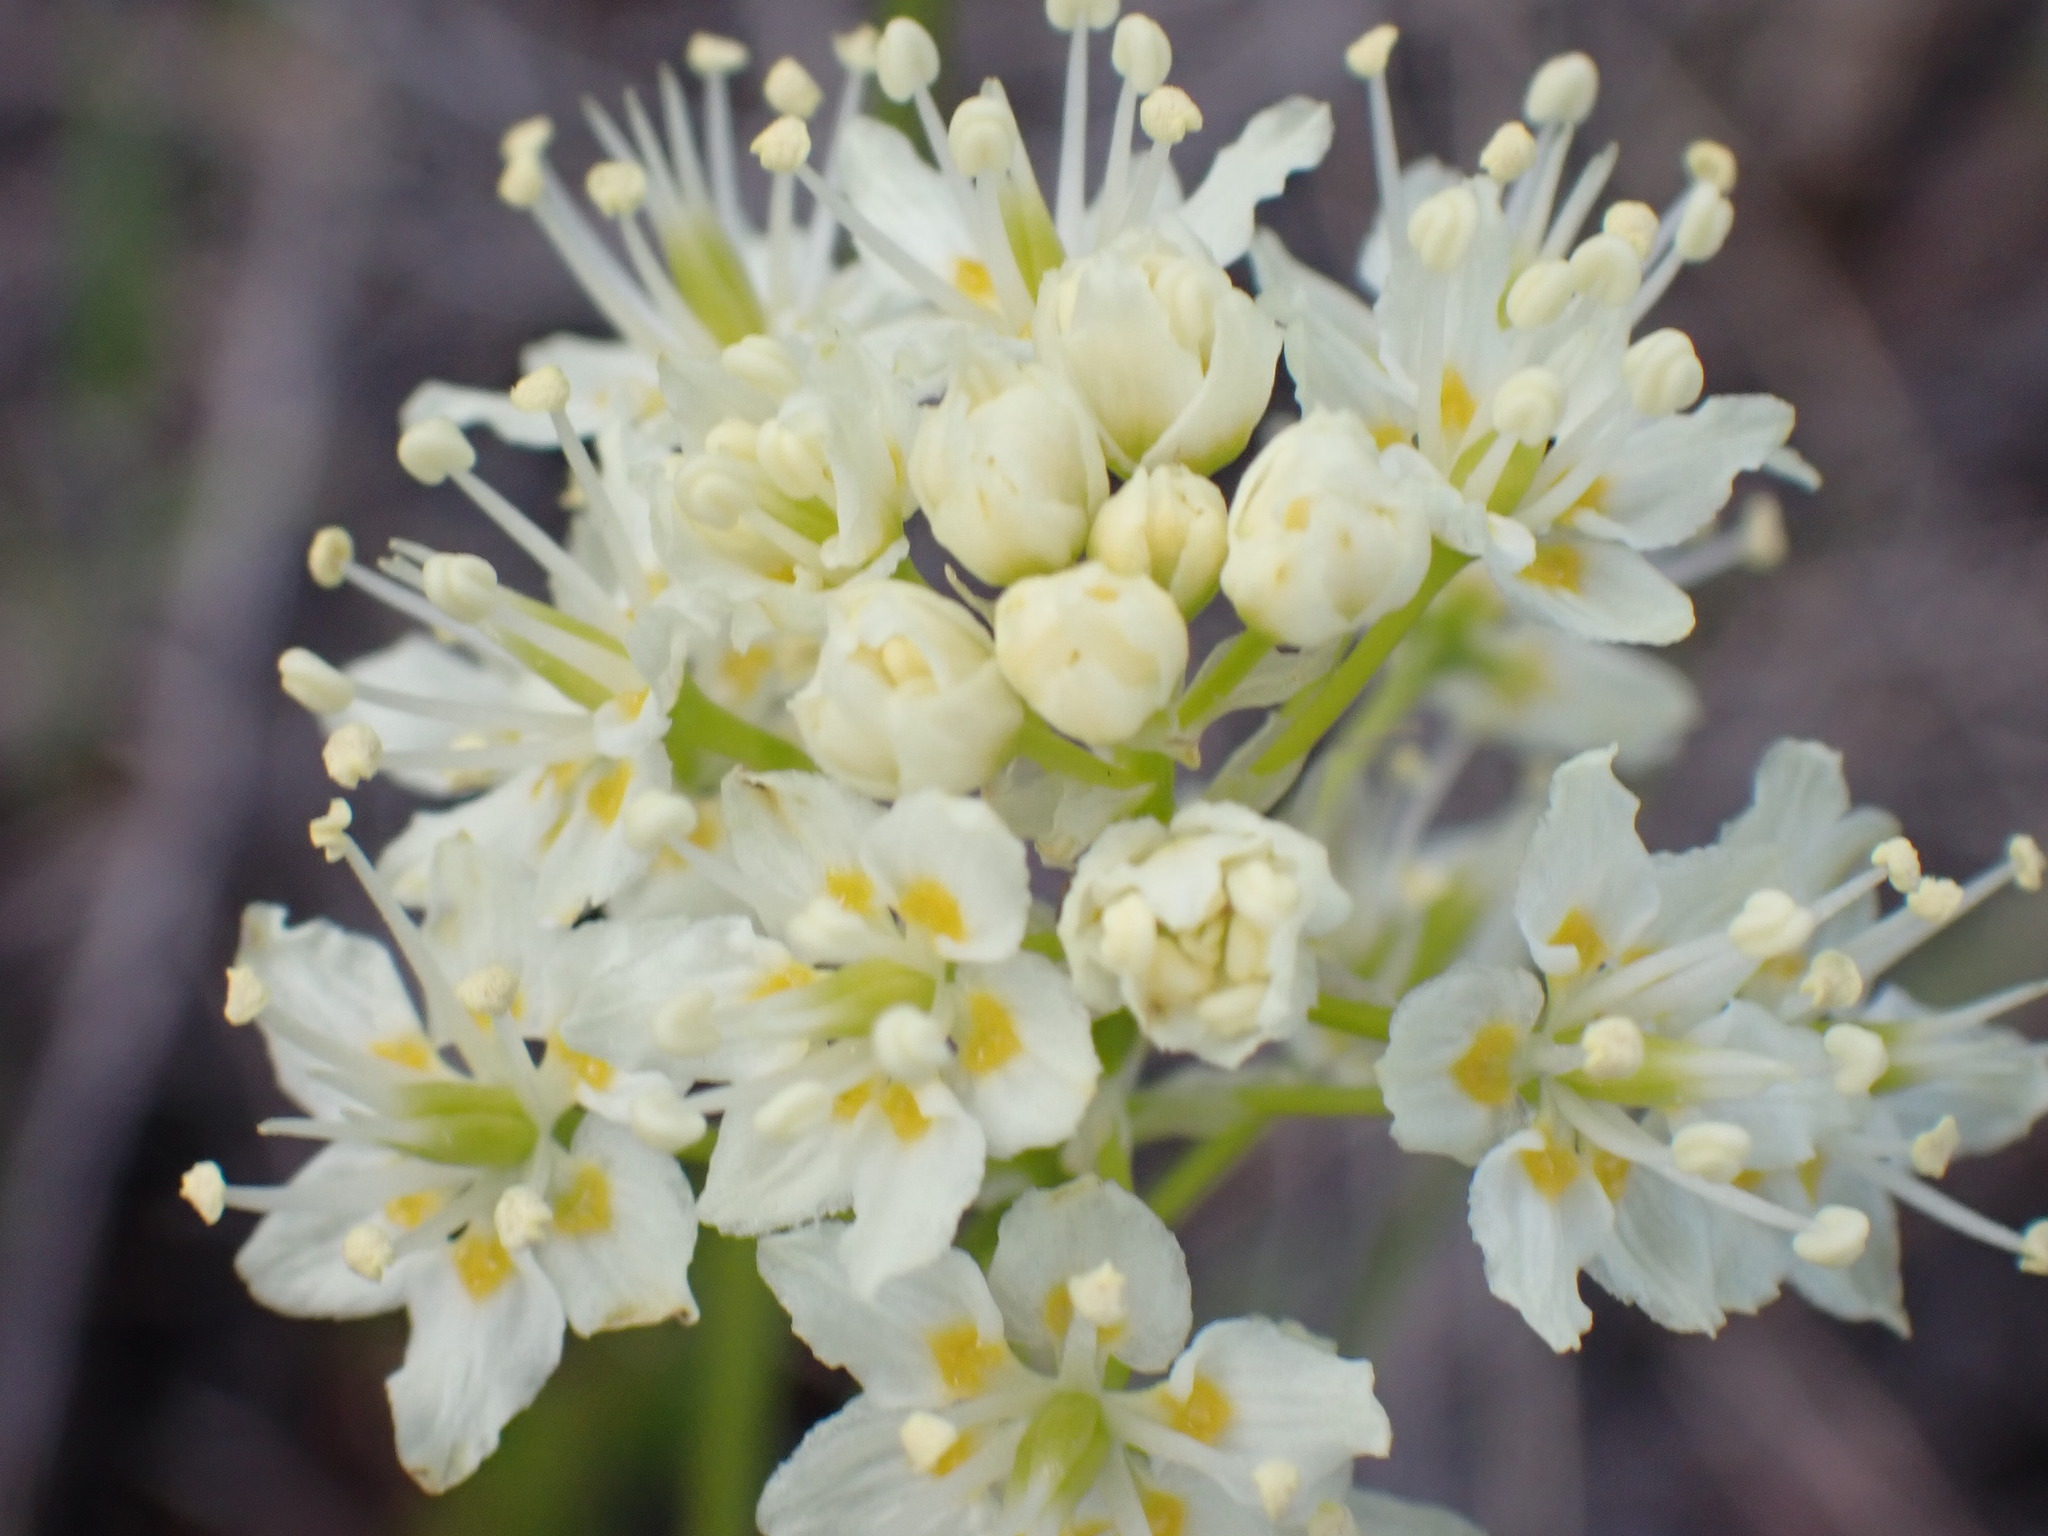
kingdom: Plantae
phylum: Tracheophyta
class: Liliopsida
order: Liliales
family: Melanthiaceae
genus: Toxicoscordion
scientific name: Toxicoscordion venenosum
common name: Meadow death camas
